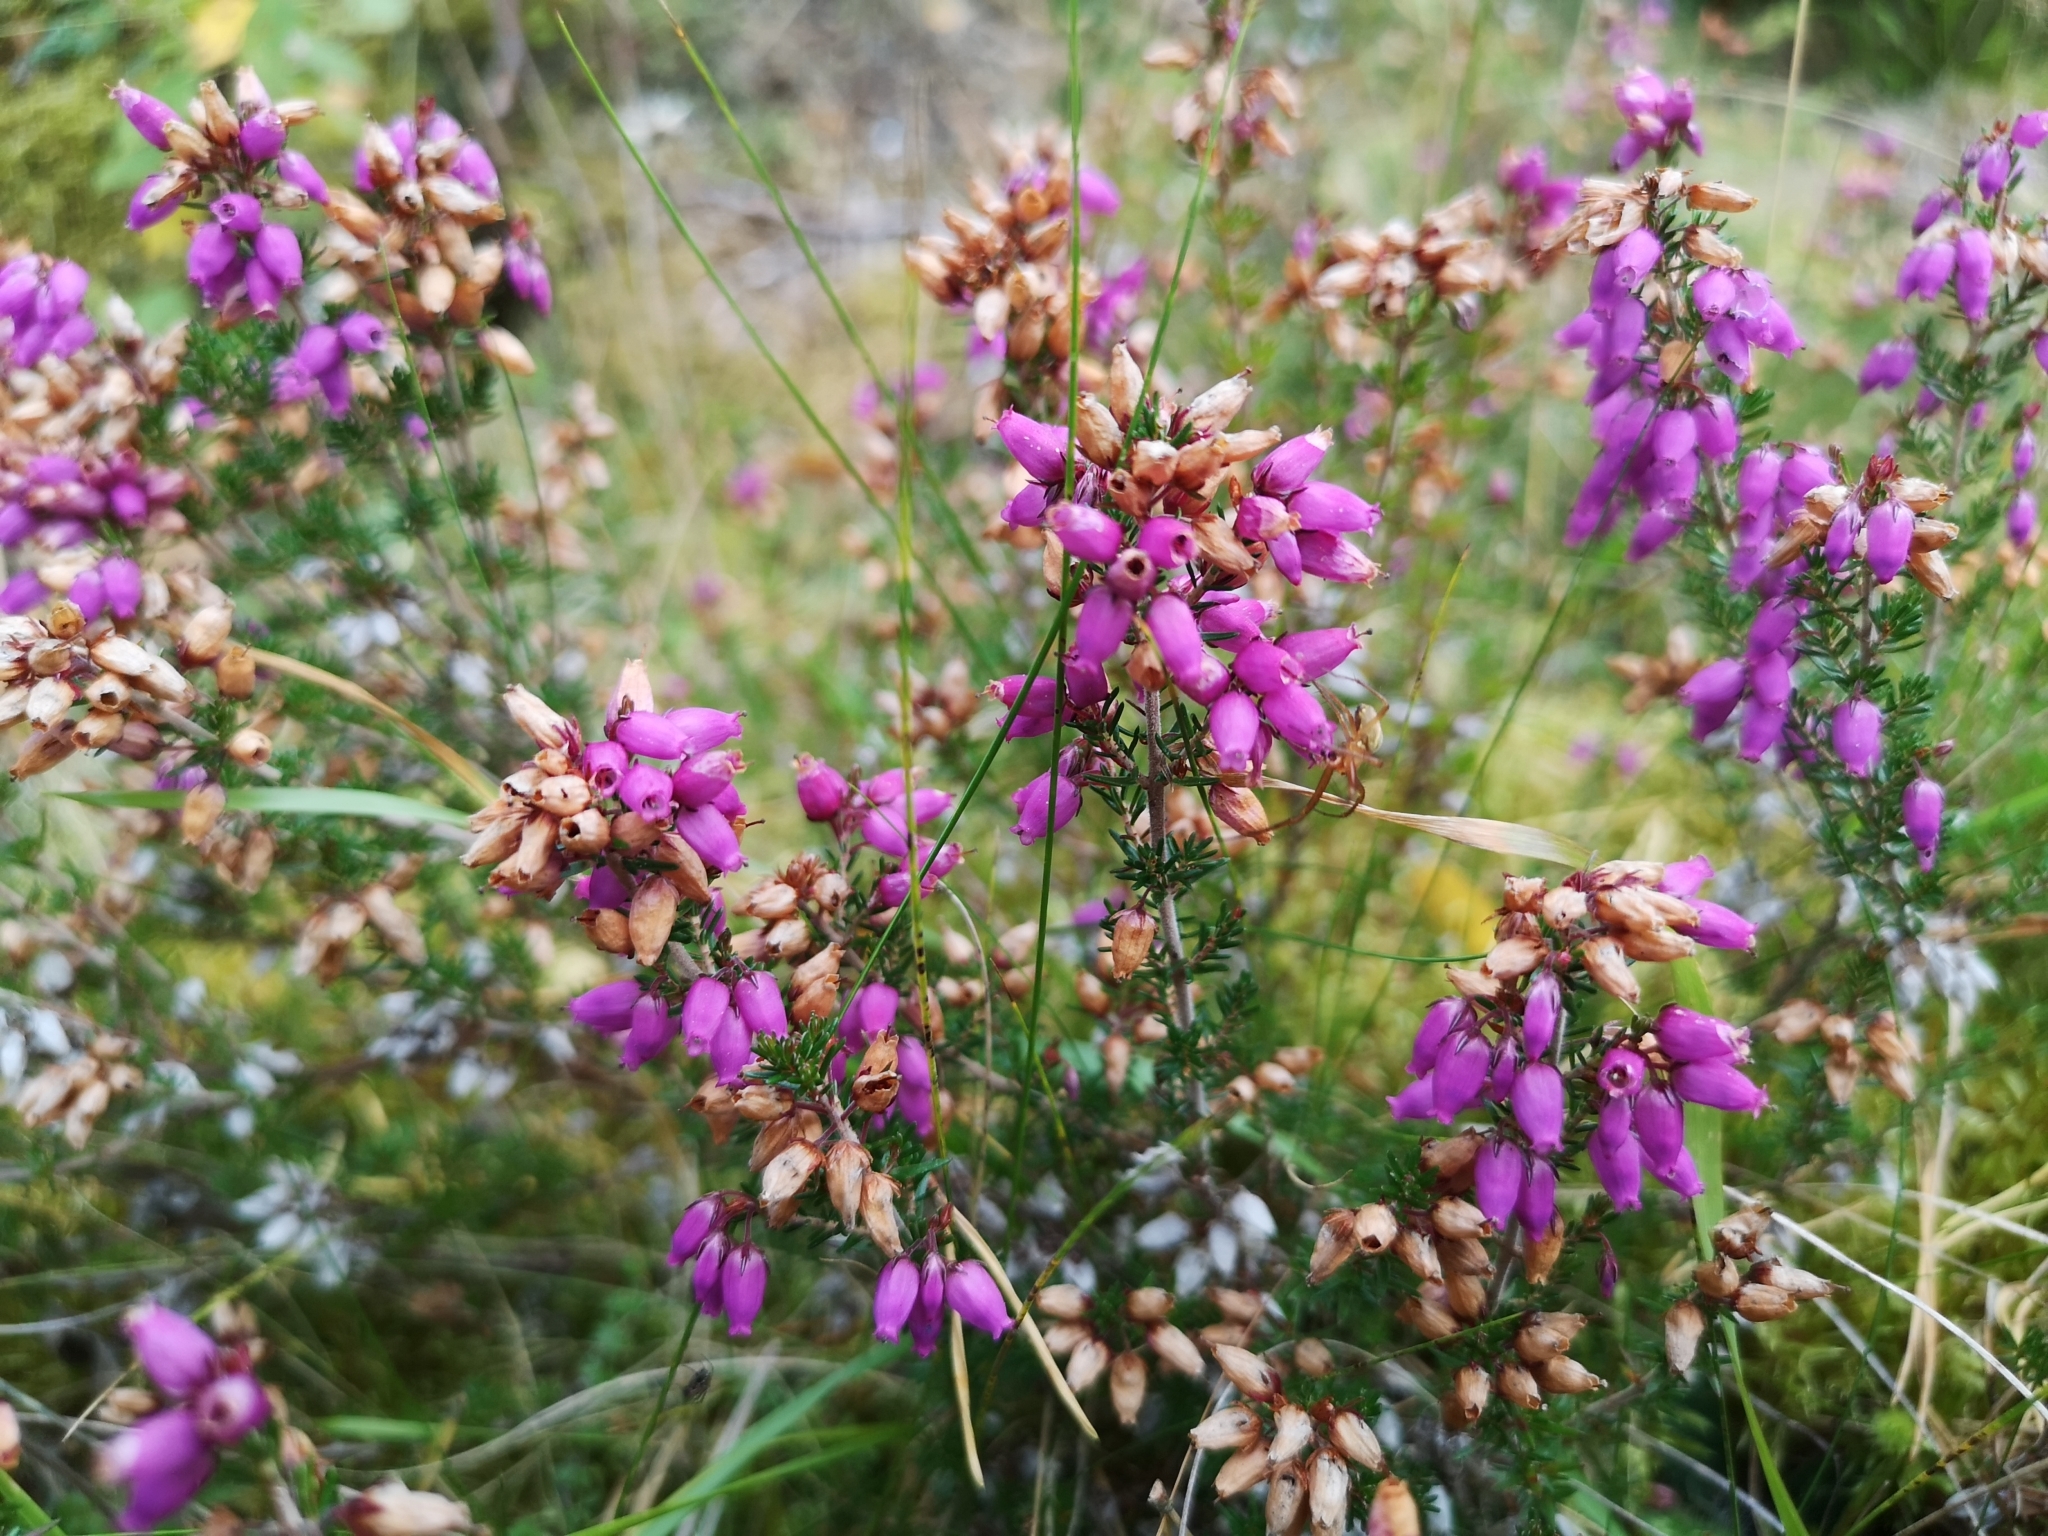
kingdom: Plantae
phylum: Tracheophyta
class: Magnoliopsida
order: Ericales
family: Ericaceae
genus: Erica
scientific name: Erica cinerea
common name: Bell heather
